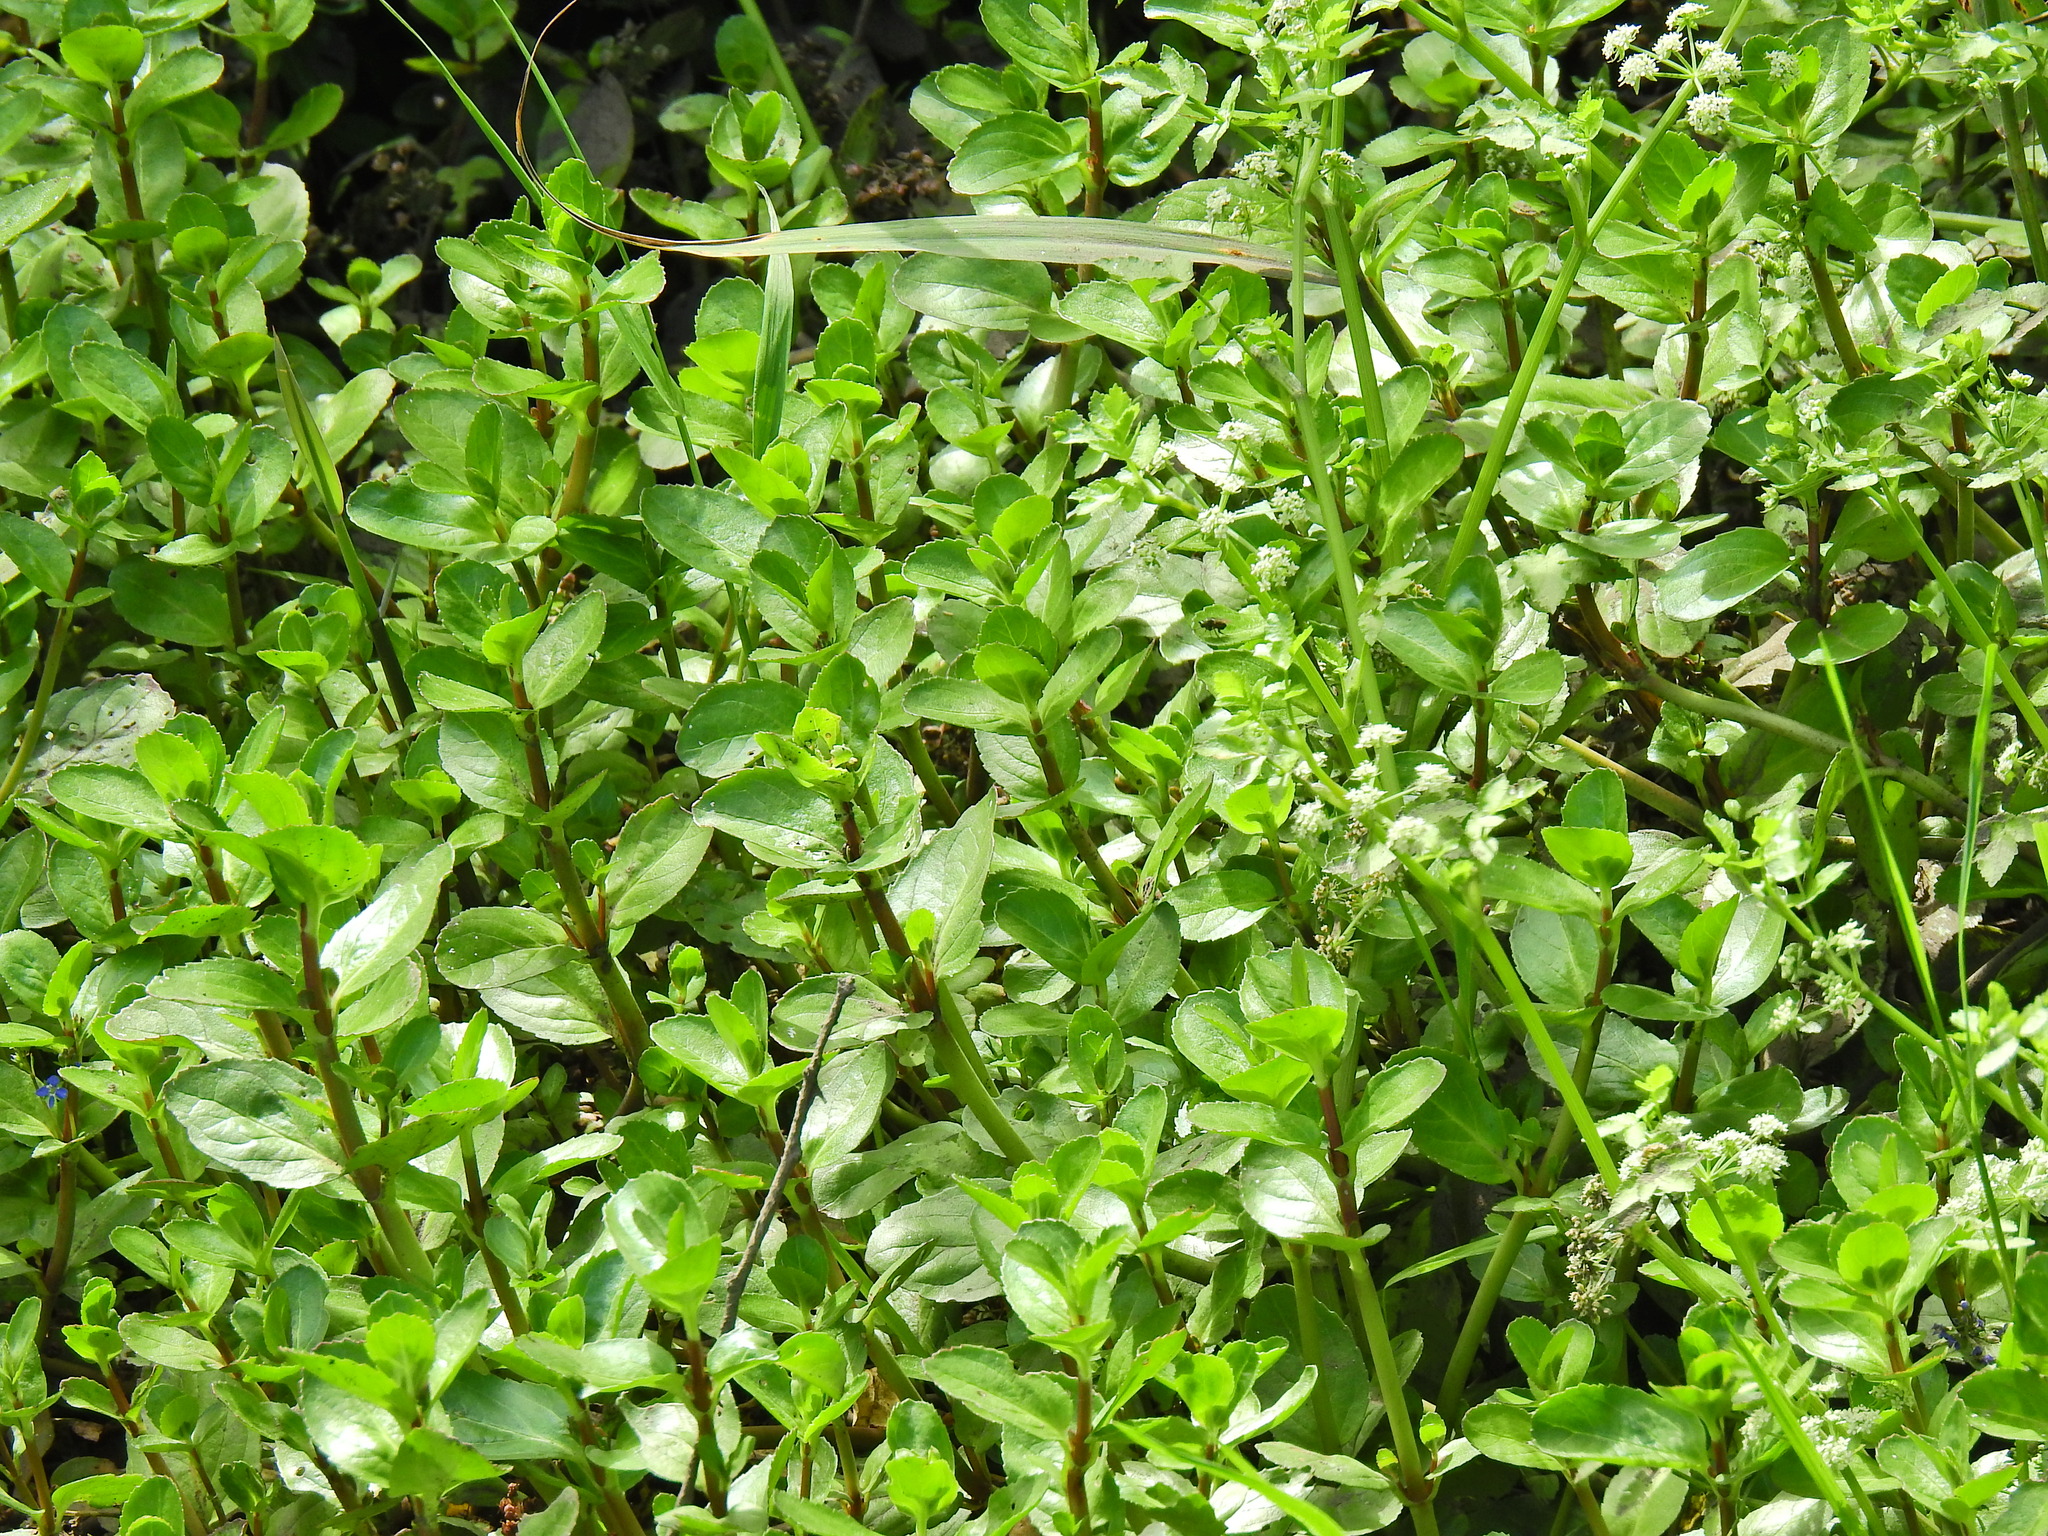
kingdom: Plantae
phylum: Tracheophyta
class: Magnoliopsida
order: Lamiales
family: Plantaginaceae
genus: Veronica
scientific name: Veronica beccabunga
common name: Brooklime
